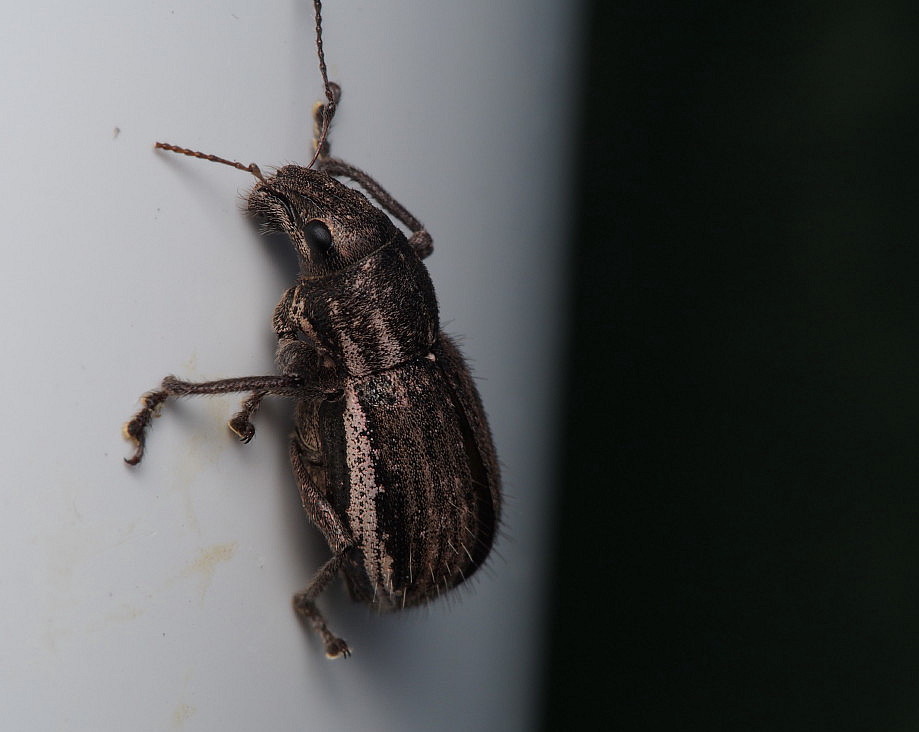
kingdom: Animalia
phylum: Arthropoda
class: Insecta
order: Coleoptera
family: Curculionidae
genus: Naupactus
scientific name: Naupactus leucoloma
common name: Whitefringed beetle
